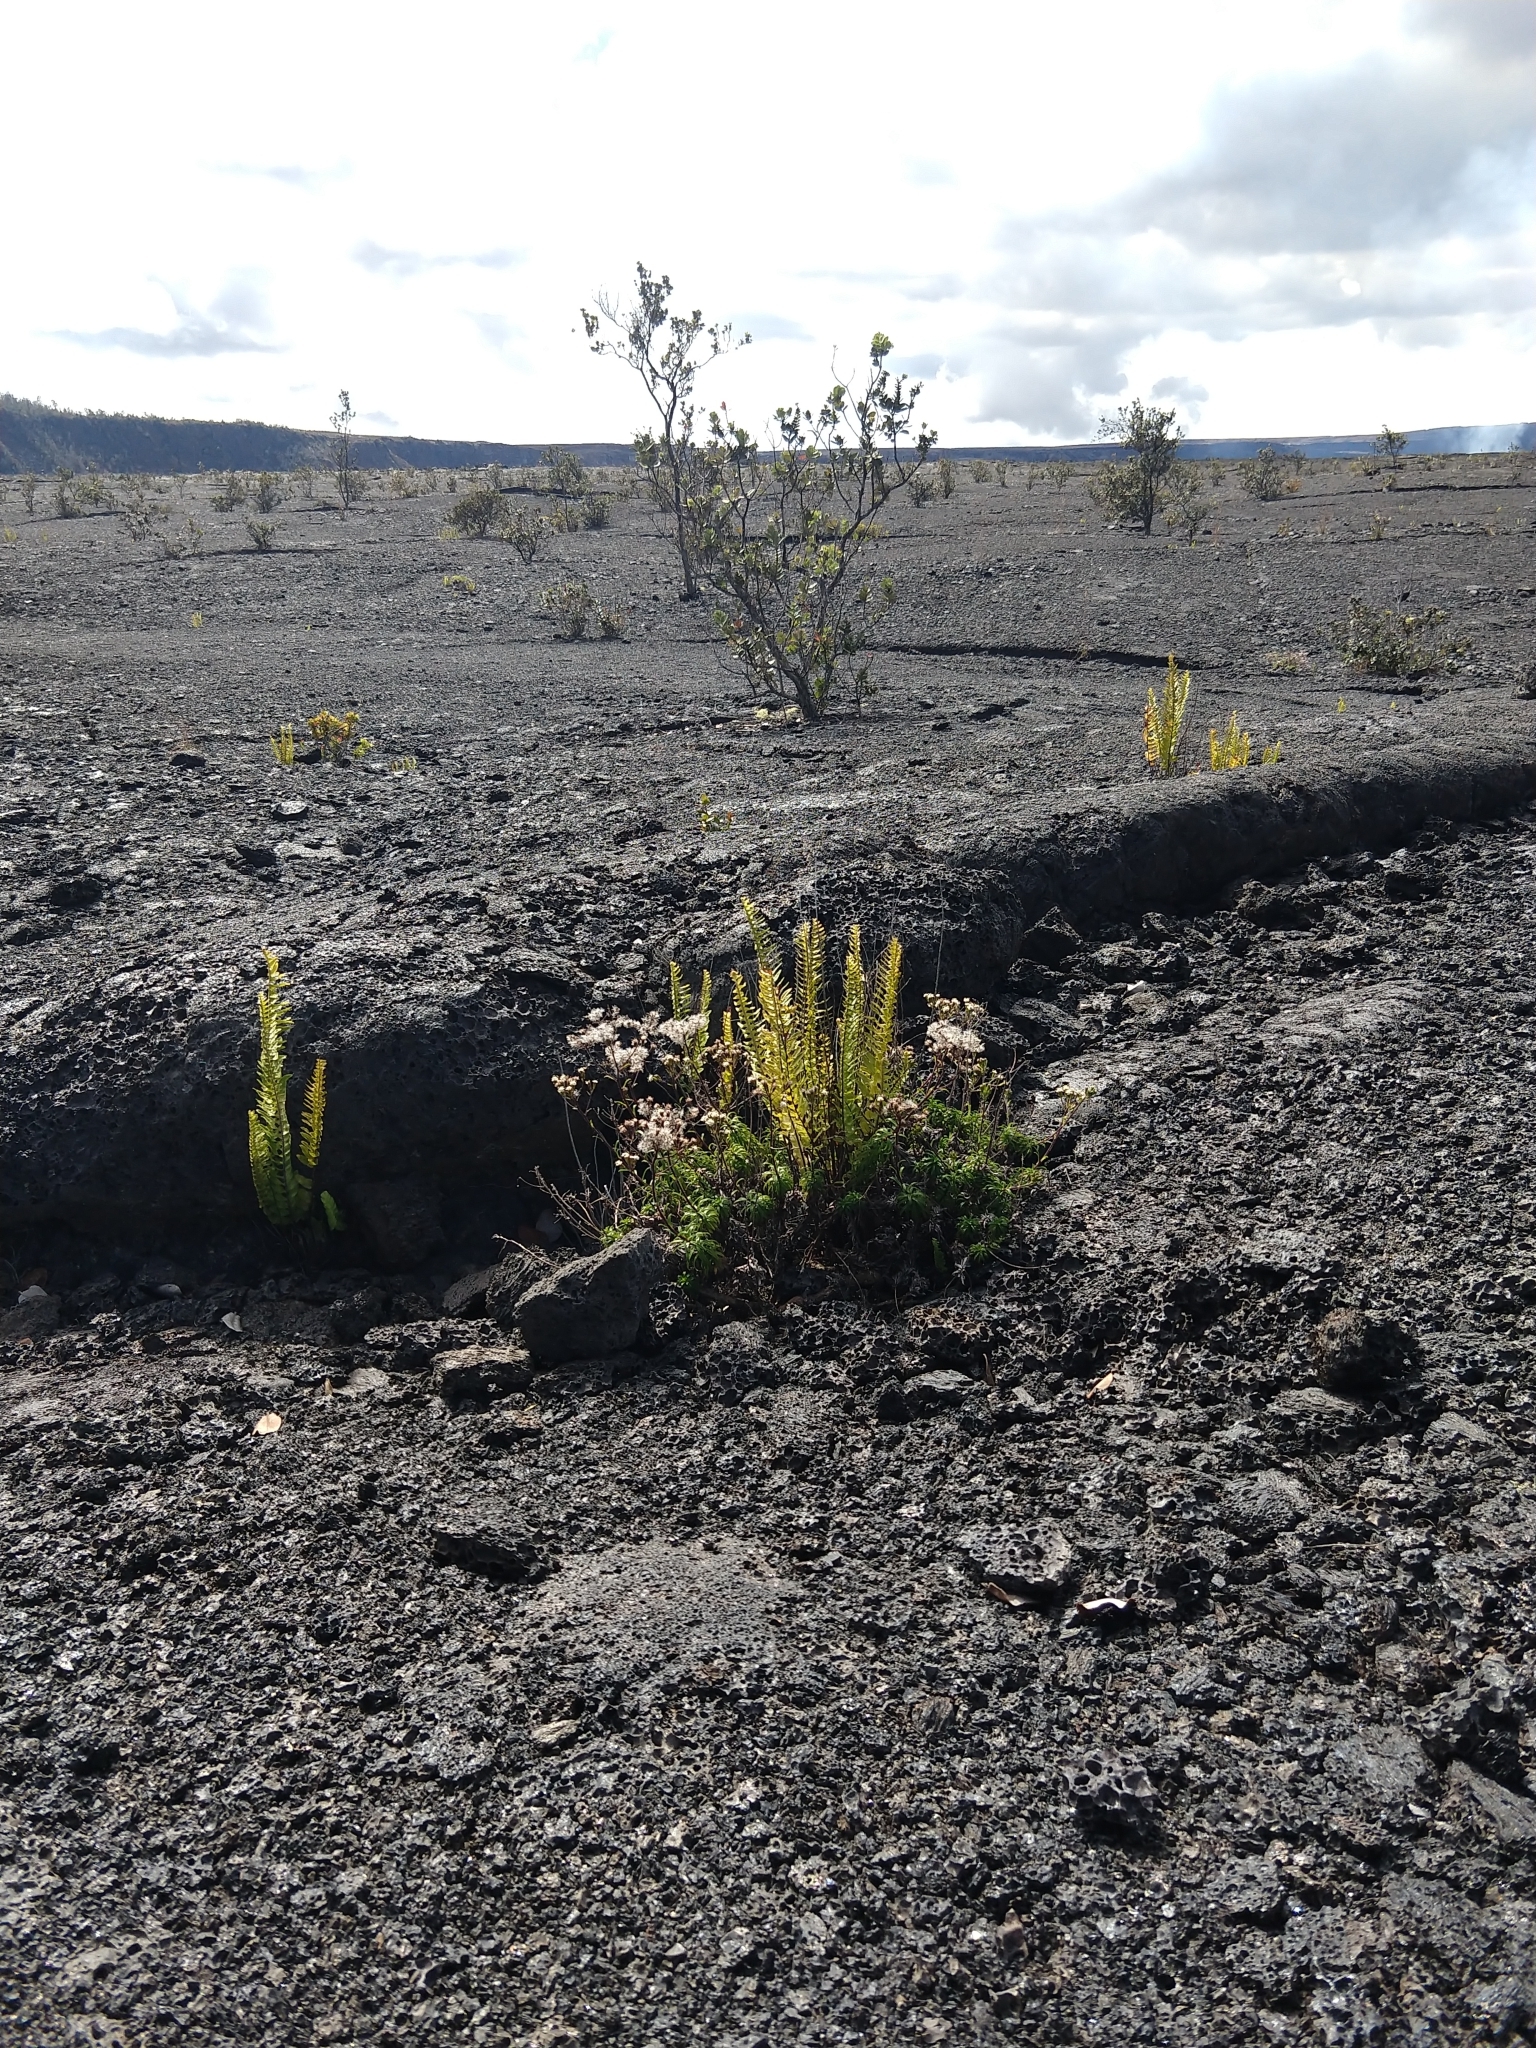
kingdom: Plantae
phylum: Tracheophyta
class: Magnoliopsida
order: Asterales
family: Asteraceae
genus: Dubautia
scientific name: Dubautia scabra
